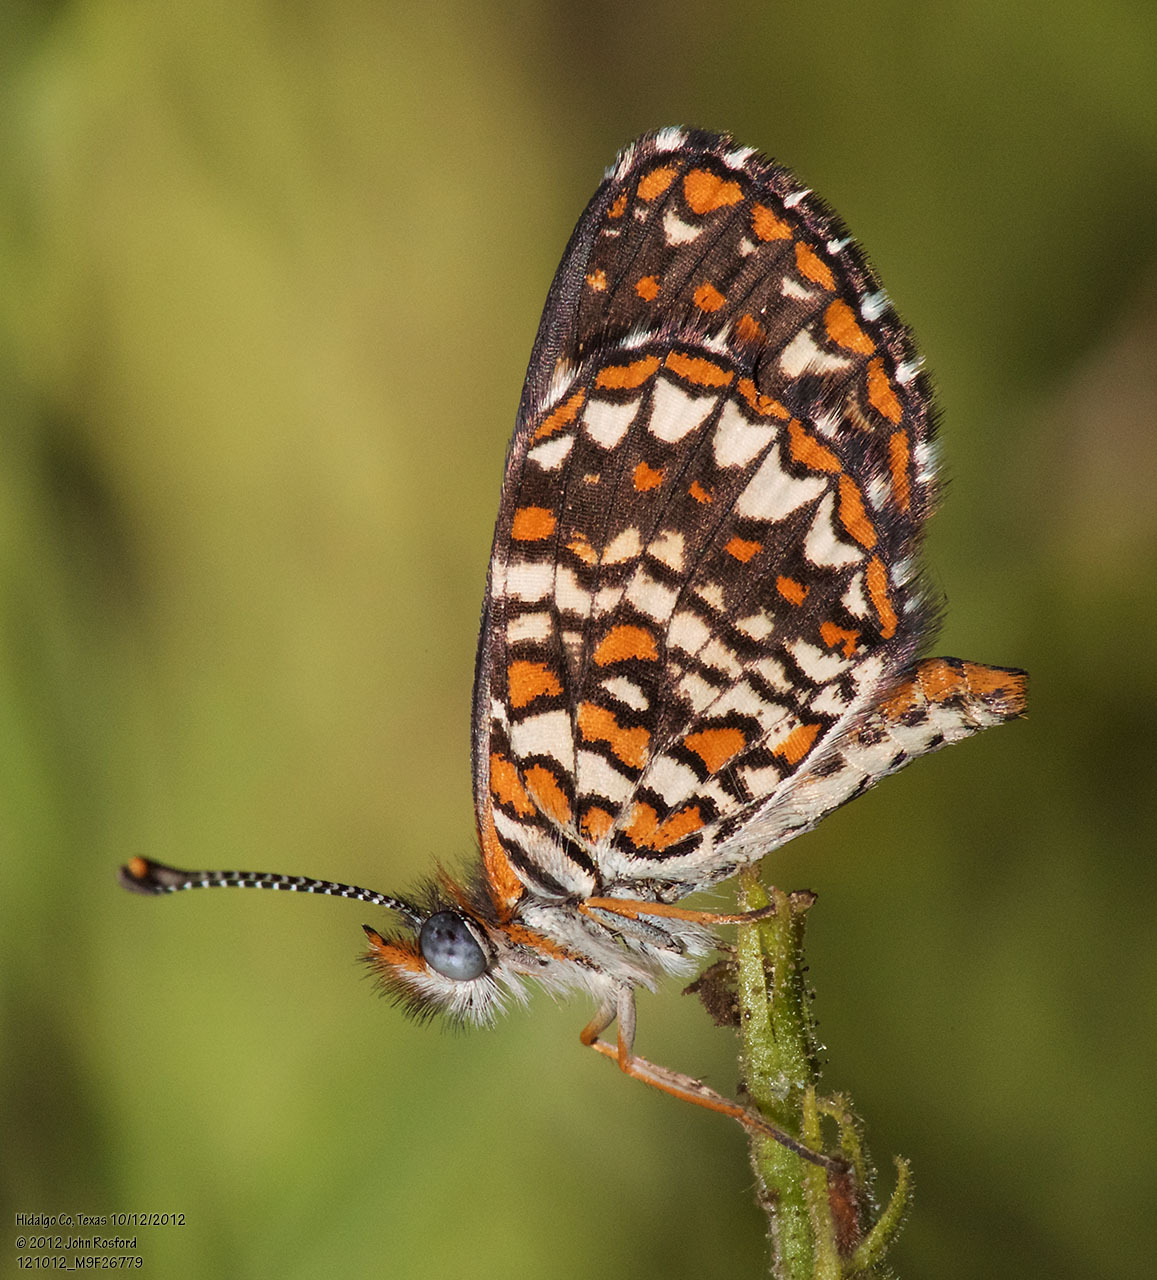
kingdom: Animalia
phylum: Arthropoda
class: Insecta
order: Lepidoptera
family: Nymphalidae
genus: Texola
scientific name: Texola elada
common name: Elada checkerspot
